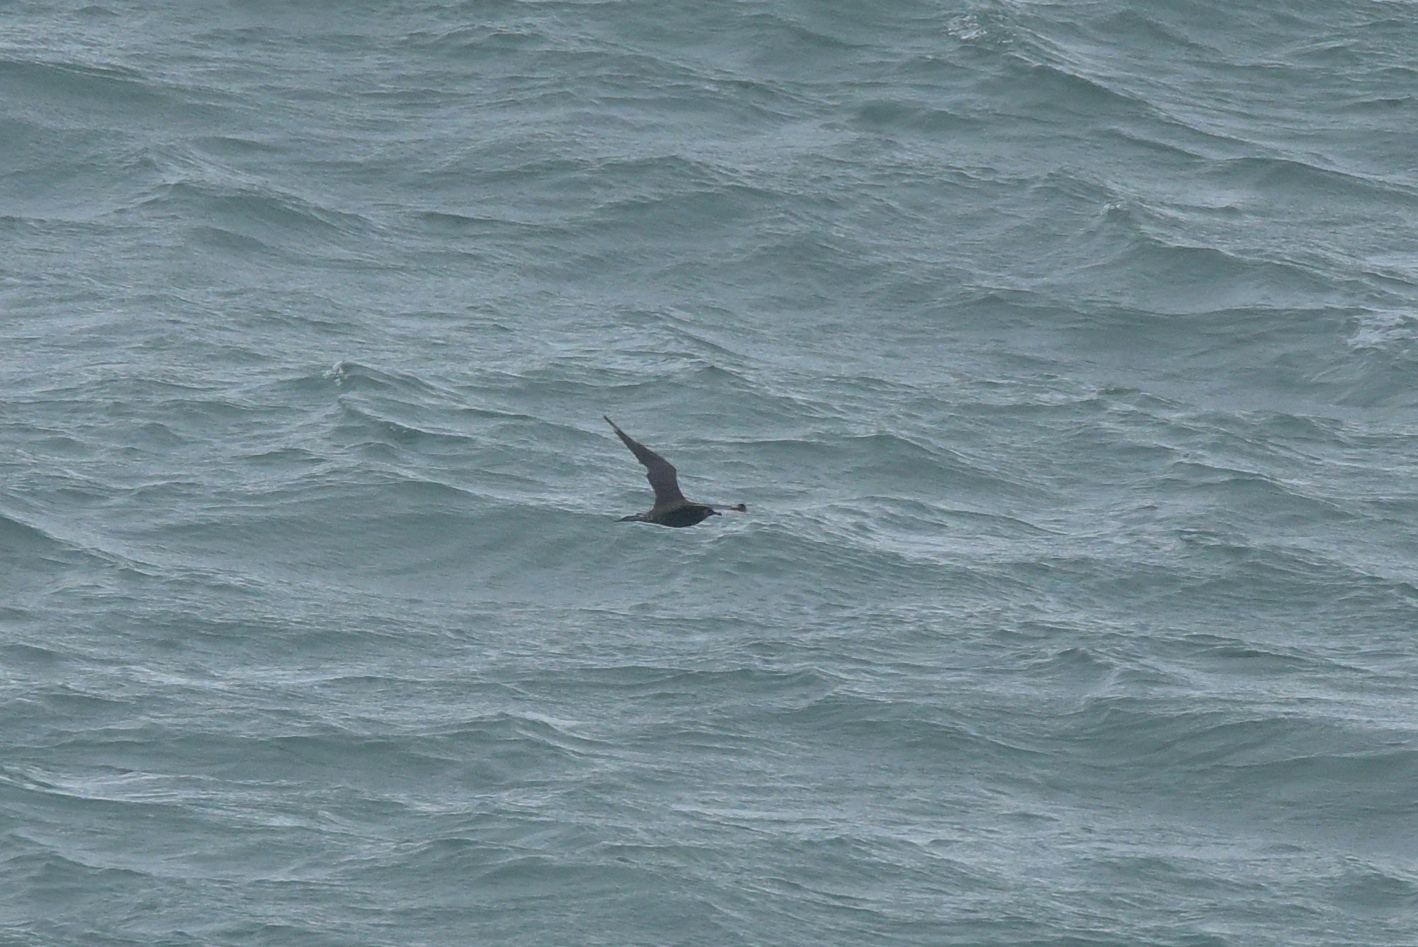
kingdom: Animalia
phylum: Chordata
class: Aves
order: Charadriiformes
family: Stercorariidae
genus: Stercorarius
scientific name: Stercorarius parasiticus
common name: Parasitic jaeger
